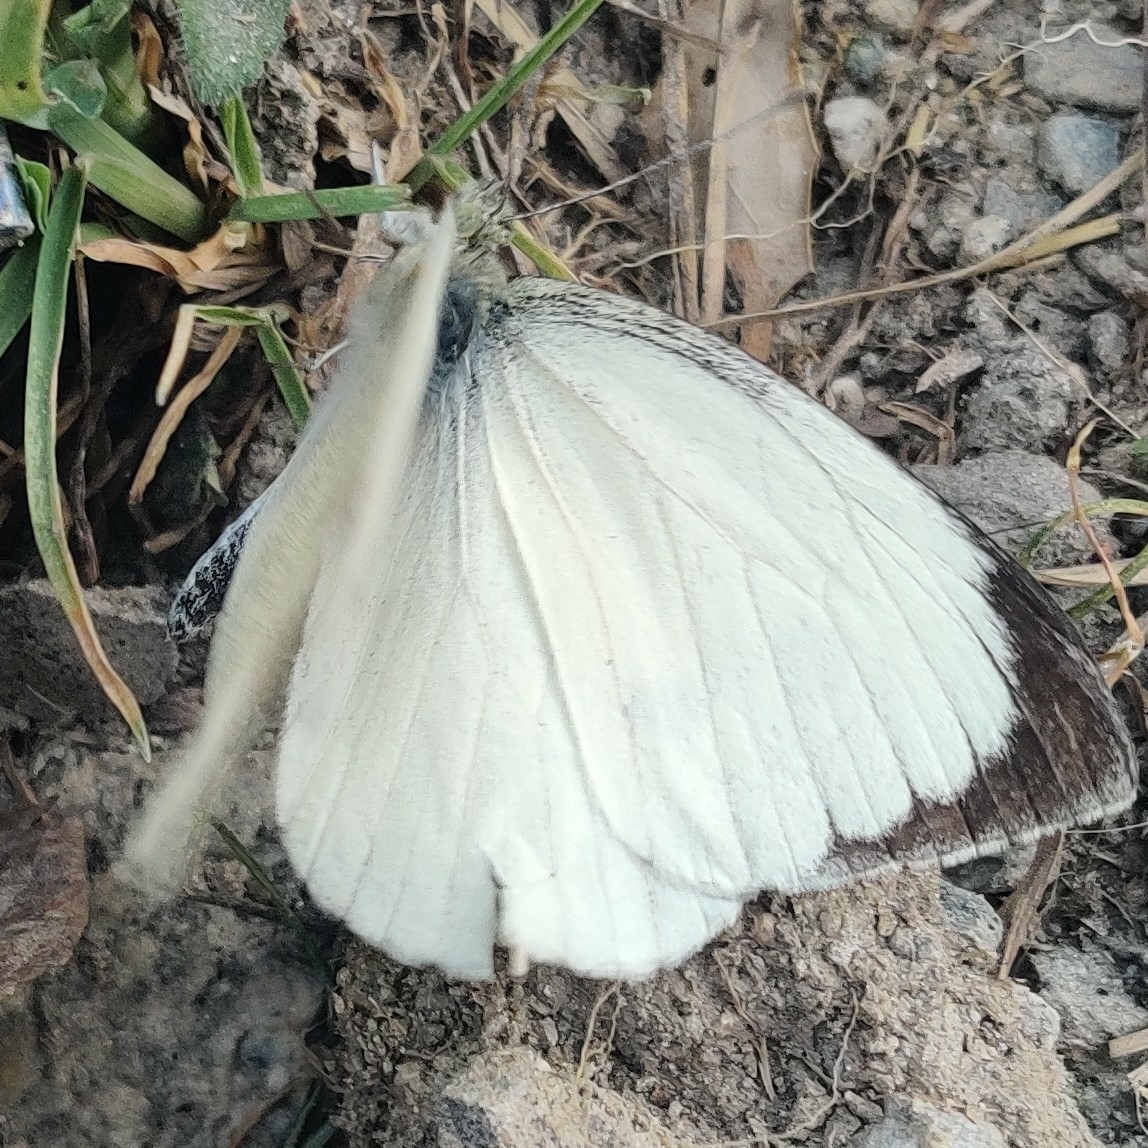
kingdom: Animalia
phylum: Arthropoda
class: Insecta
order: Lepidoptera
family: Pieridae
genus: Pieris
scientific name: Pieris brassicae
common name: Large white
